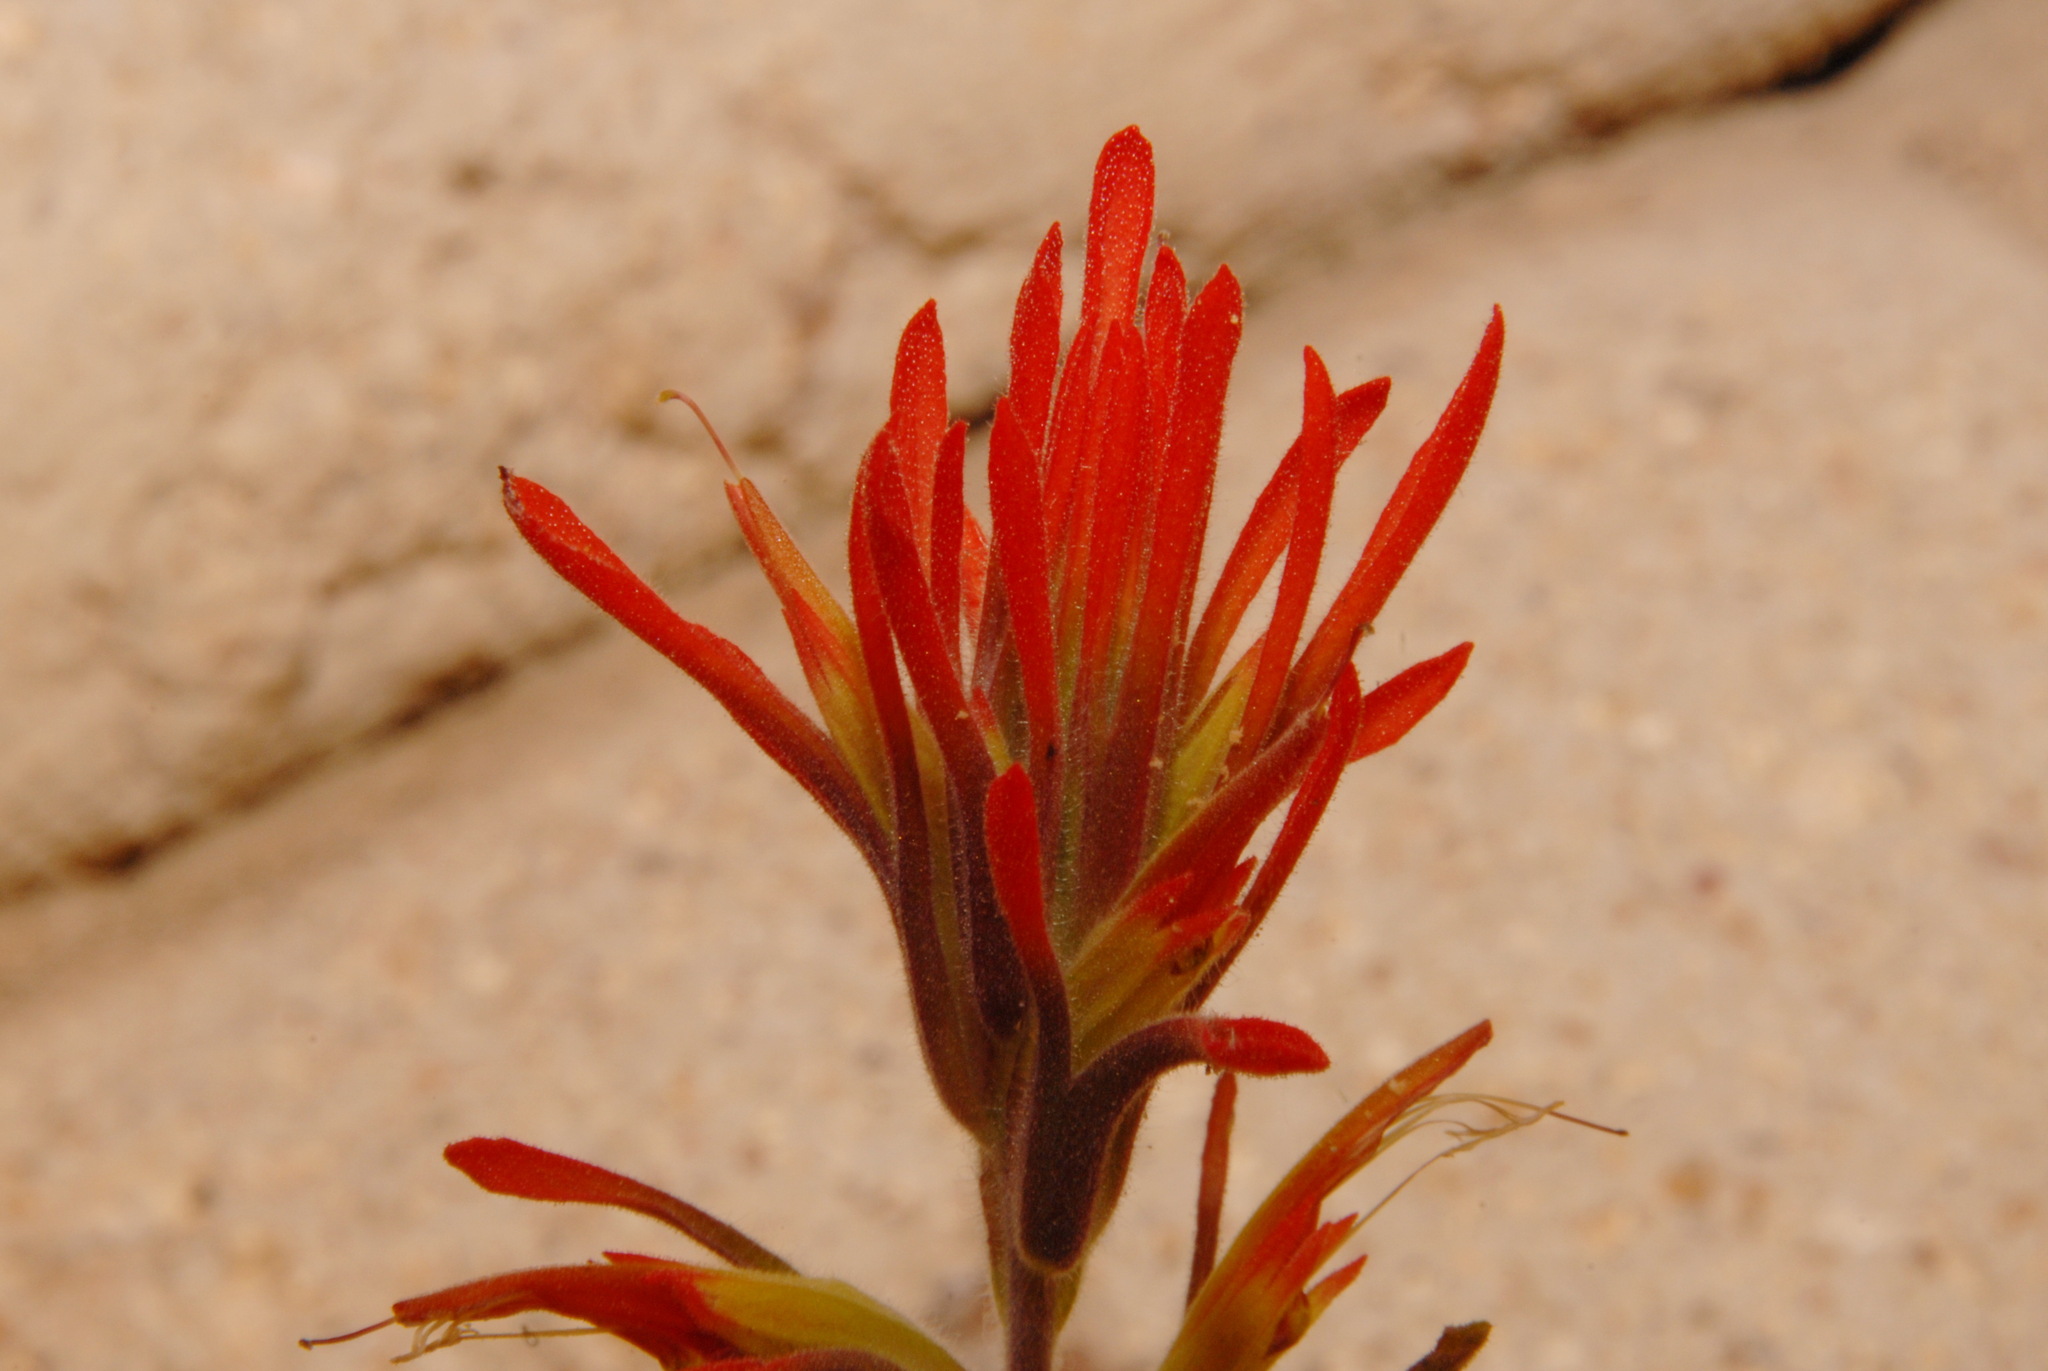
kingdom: Plantae
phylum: Tracheophyta
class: Magnoliopsida
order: Lamiales
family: Orobanchaceae
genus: Castilleja
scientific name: Castilleja applegatei
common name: Wavy-leaf paintbrush
